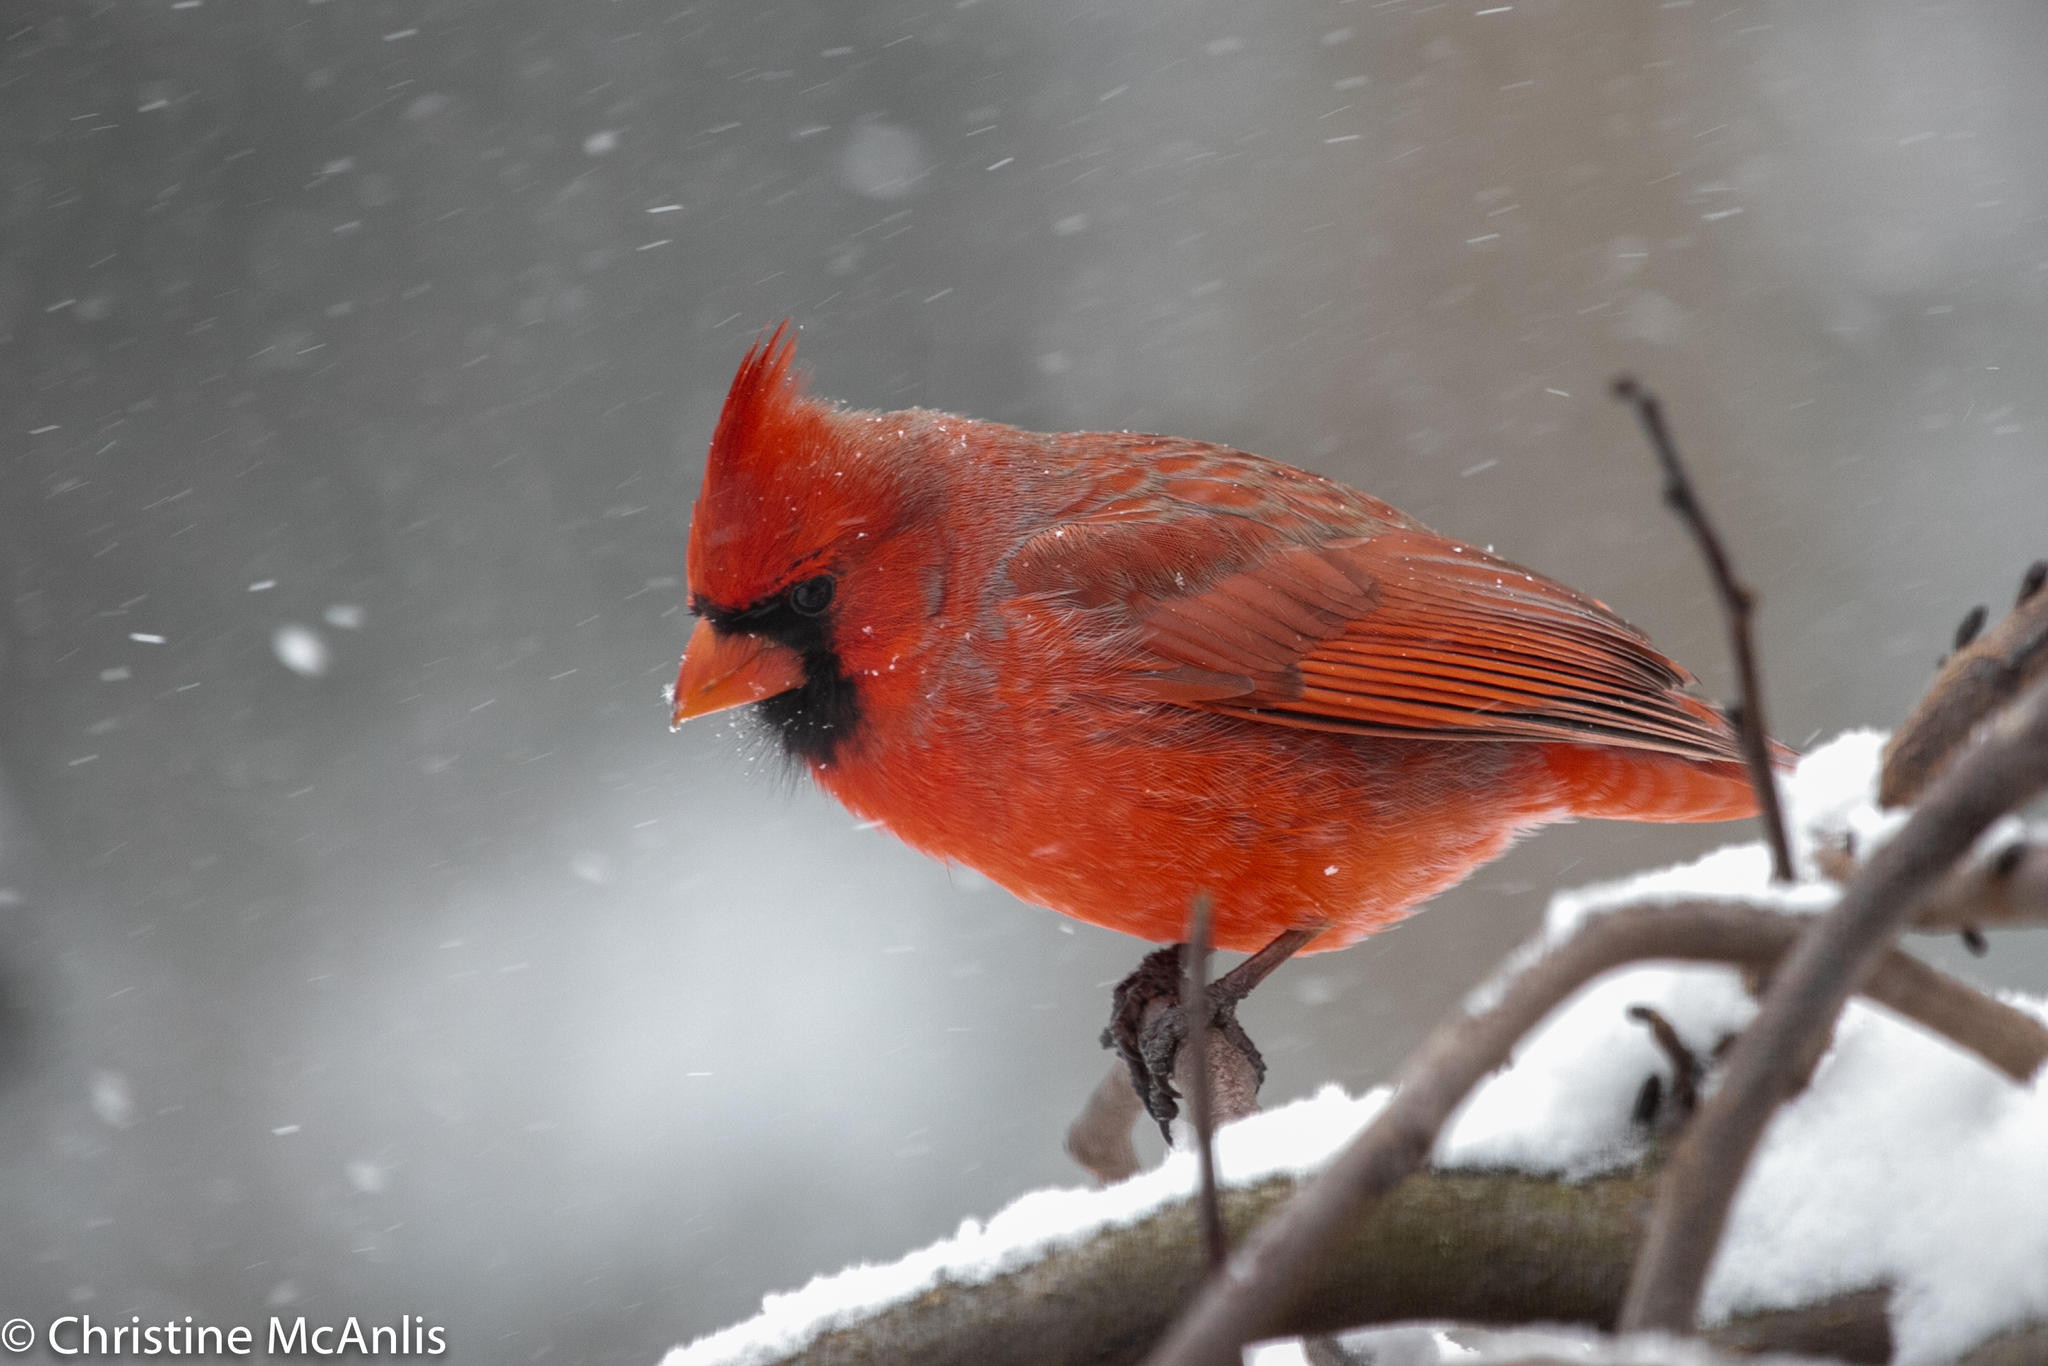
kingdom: Animalia
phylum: Chordata
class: Aves
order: Passeriformes
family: Cardinalidae
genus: Cardinalis
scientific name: Cardinalis cardinalis
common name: Northern cardinal
